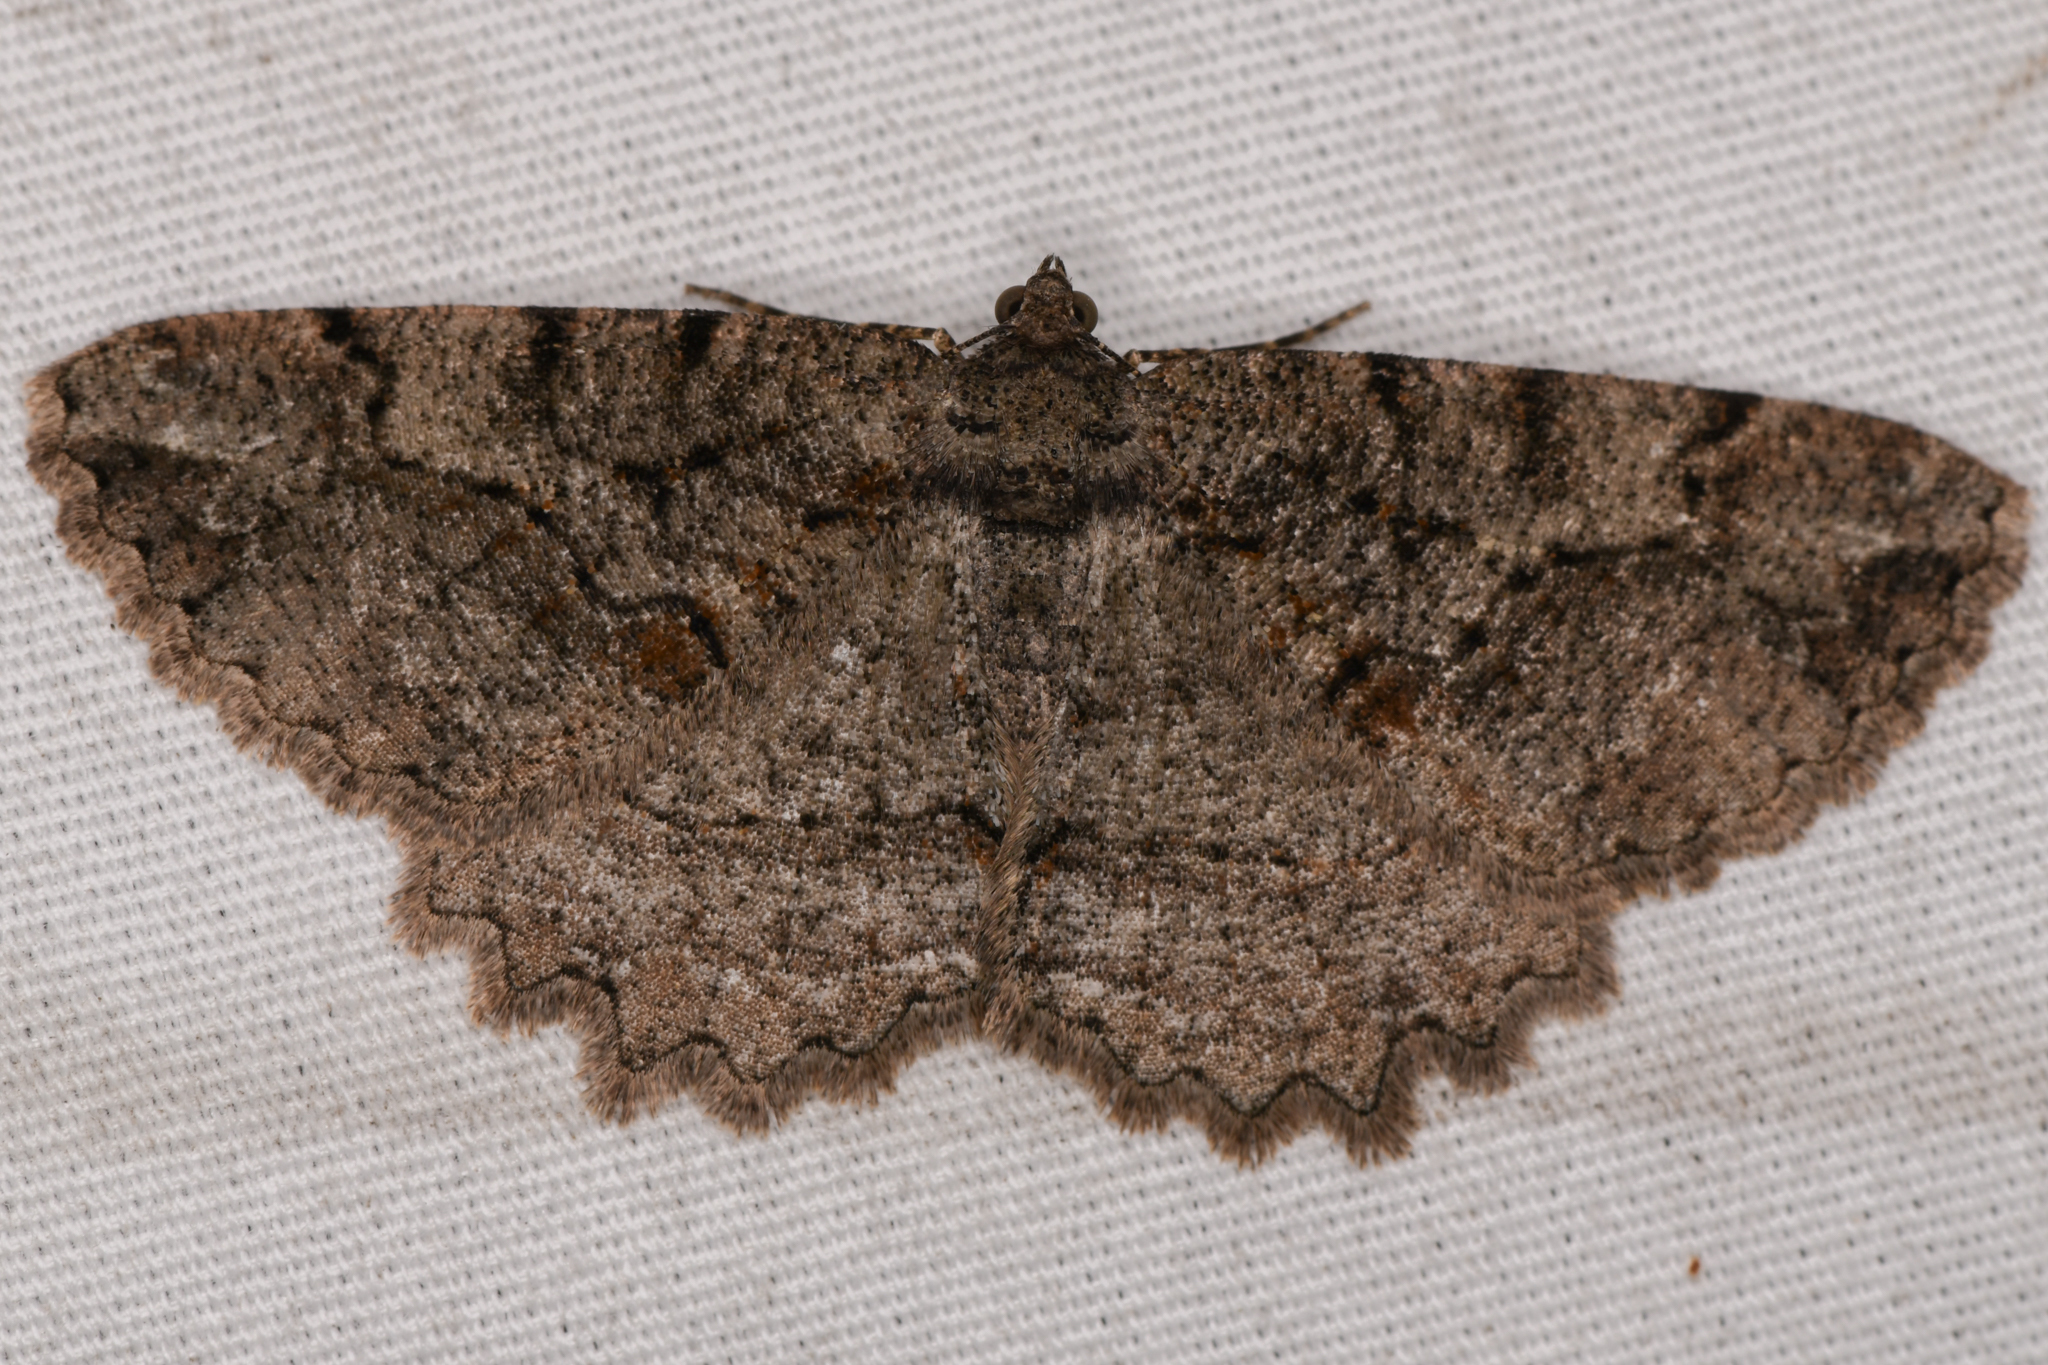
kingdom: Animalia
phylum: Arthropoda
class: Insecta
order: Lepidoptera
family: Geometridae
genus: Neoalcis
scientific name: Neoalcis californiaria
